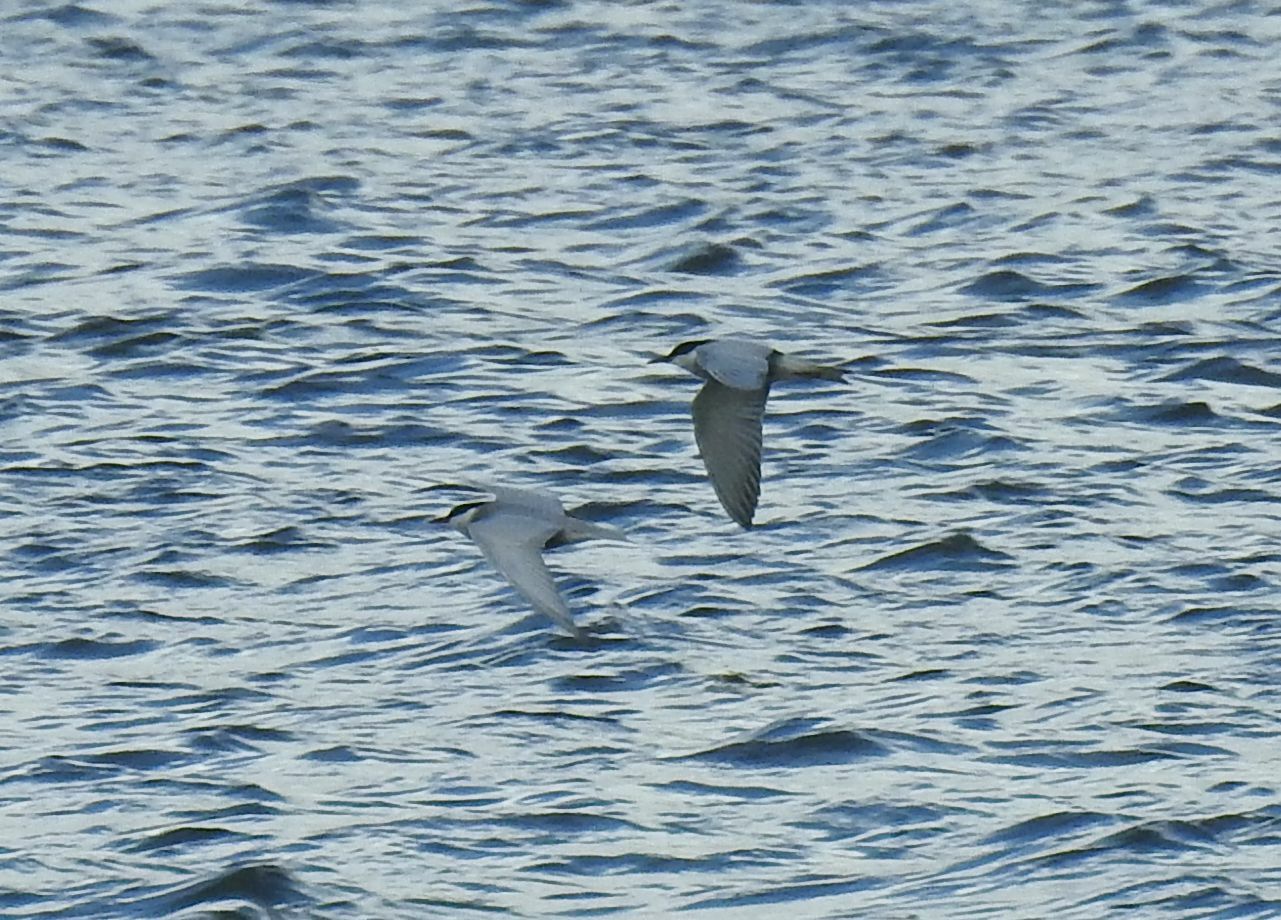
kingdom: Animalia
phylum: Chordata
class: Aves
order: Charadriiformes
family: Laridae
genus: Chlidonias
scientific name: Chlidonias hybrida
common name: Whiskered tern
